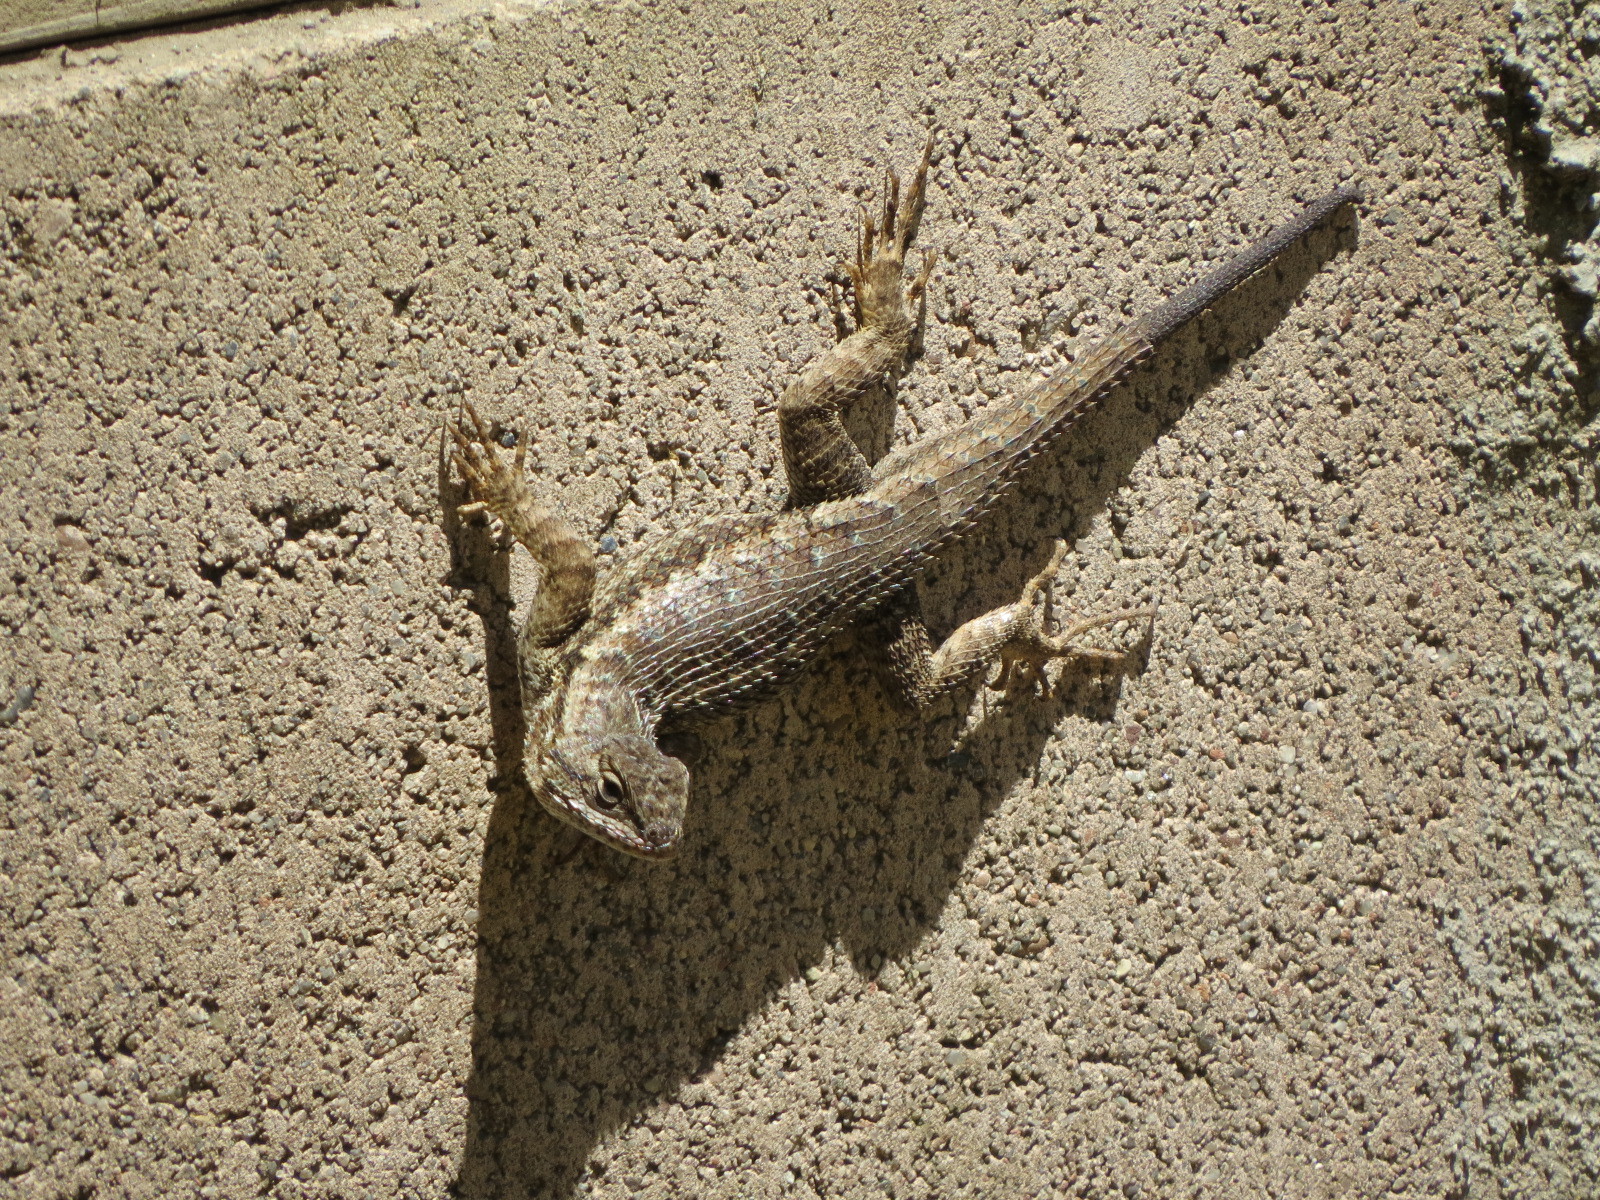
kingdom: Animalia
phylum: Chordata
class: Squamata
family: Phrynosomatidae
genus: Sceloporus
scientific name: Sceloporus occidentalis
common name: Western fence lizard
